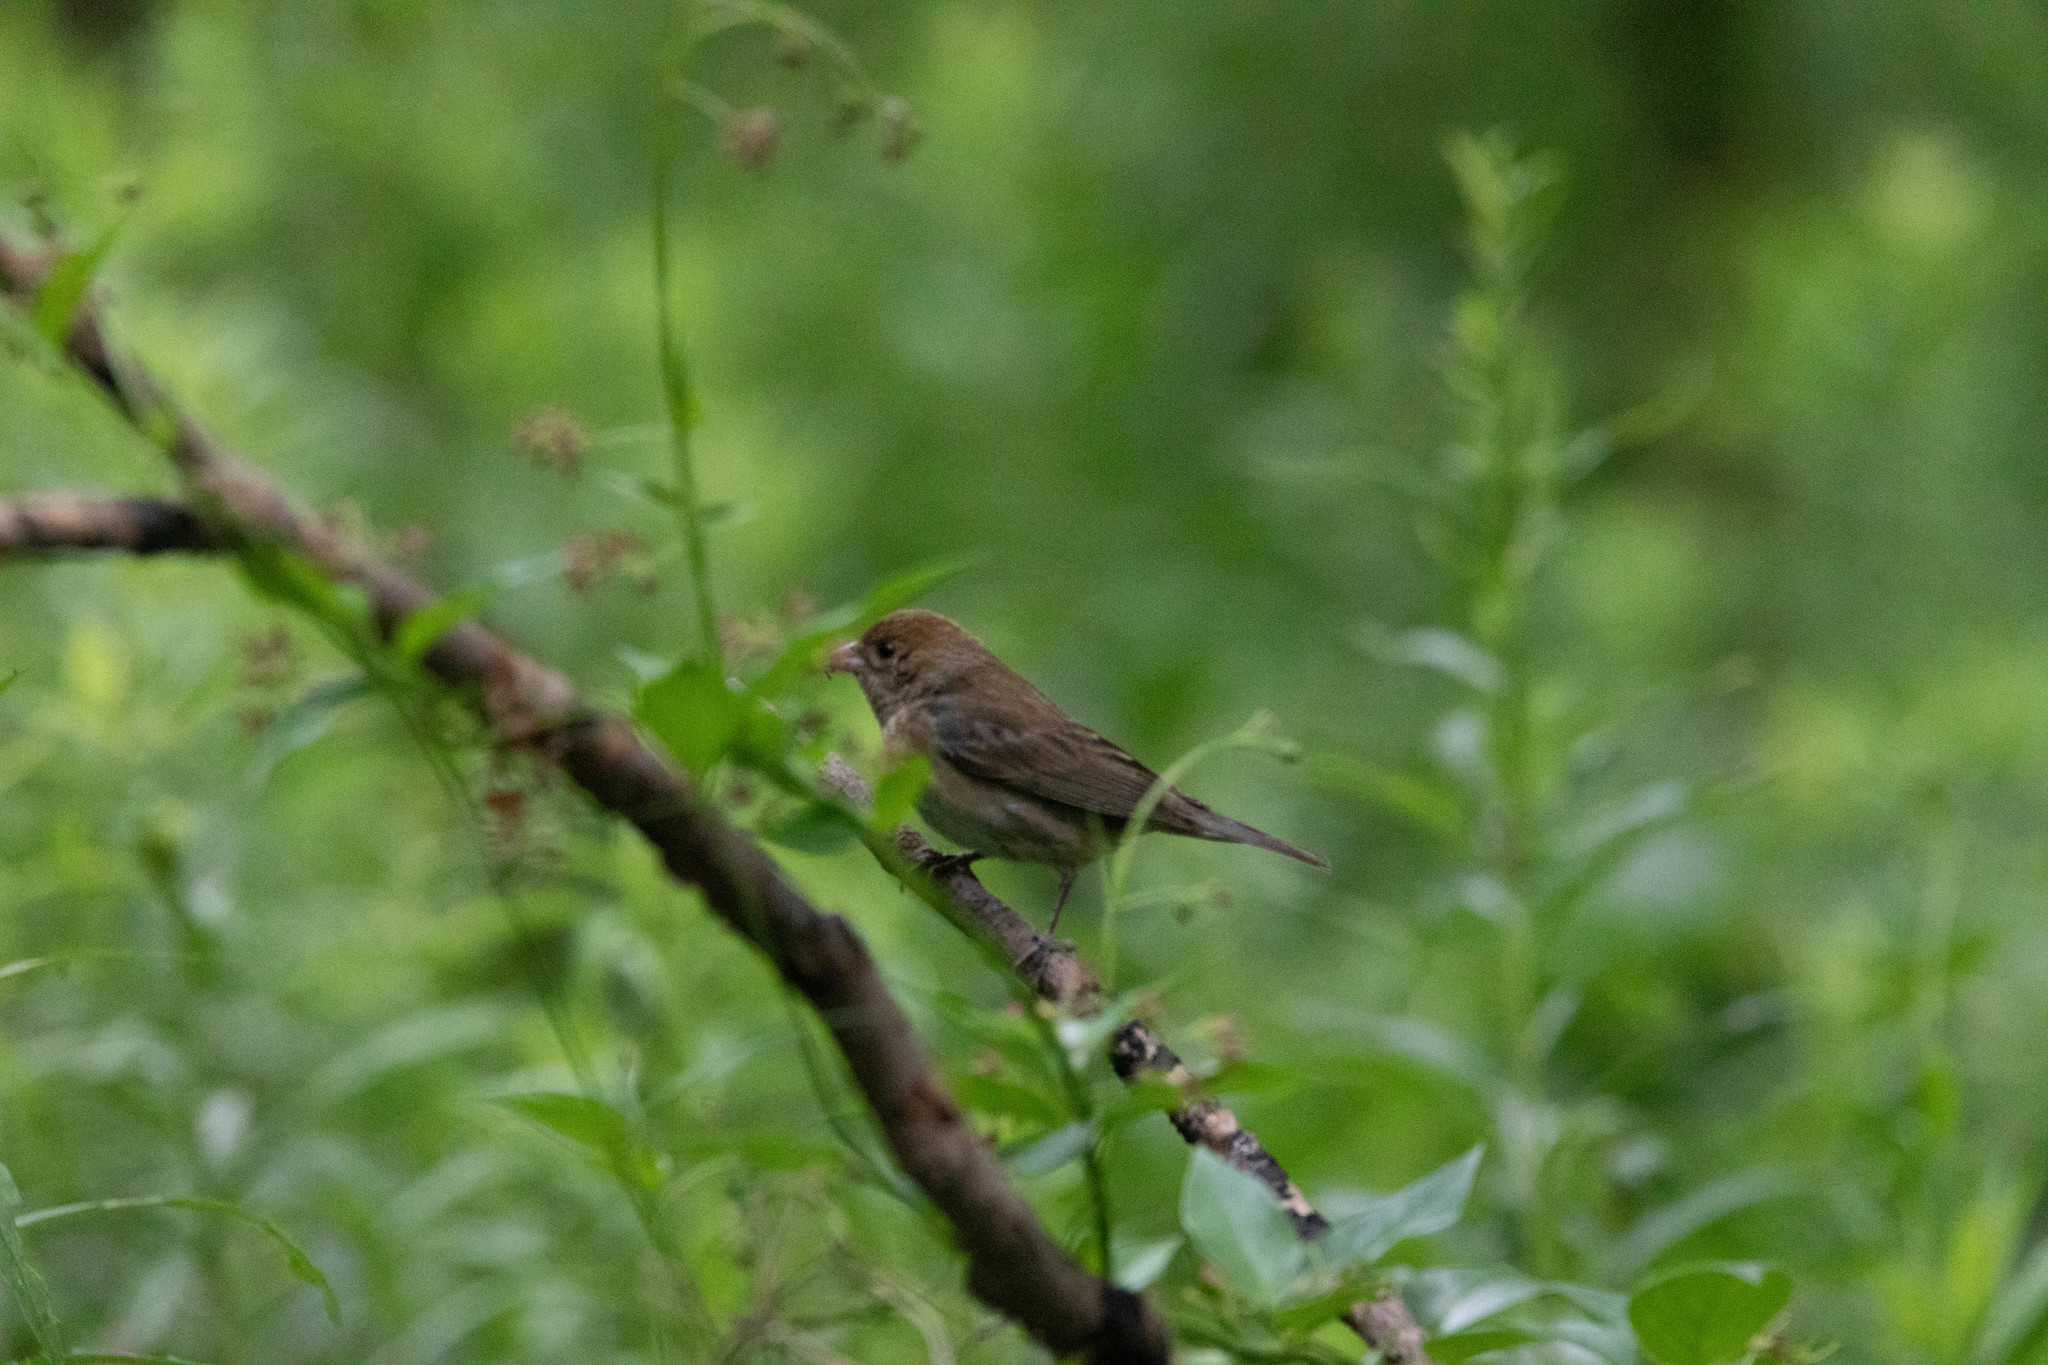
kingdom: Animalia
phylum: Chordata
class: Aves
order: Passeriformes
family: Cardinalidae
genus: Passerina
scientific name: Passerina cyanea
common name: Indigo bunting
